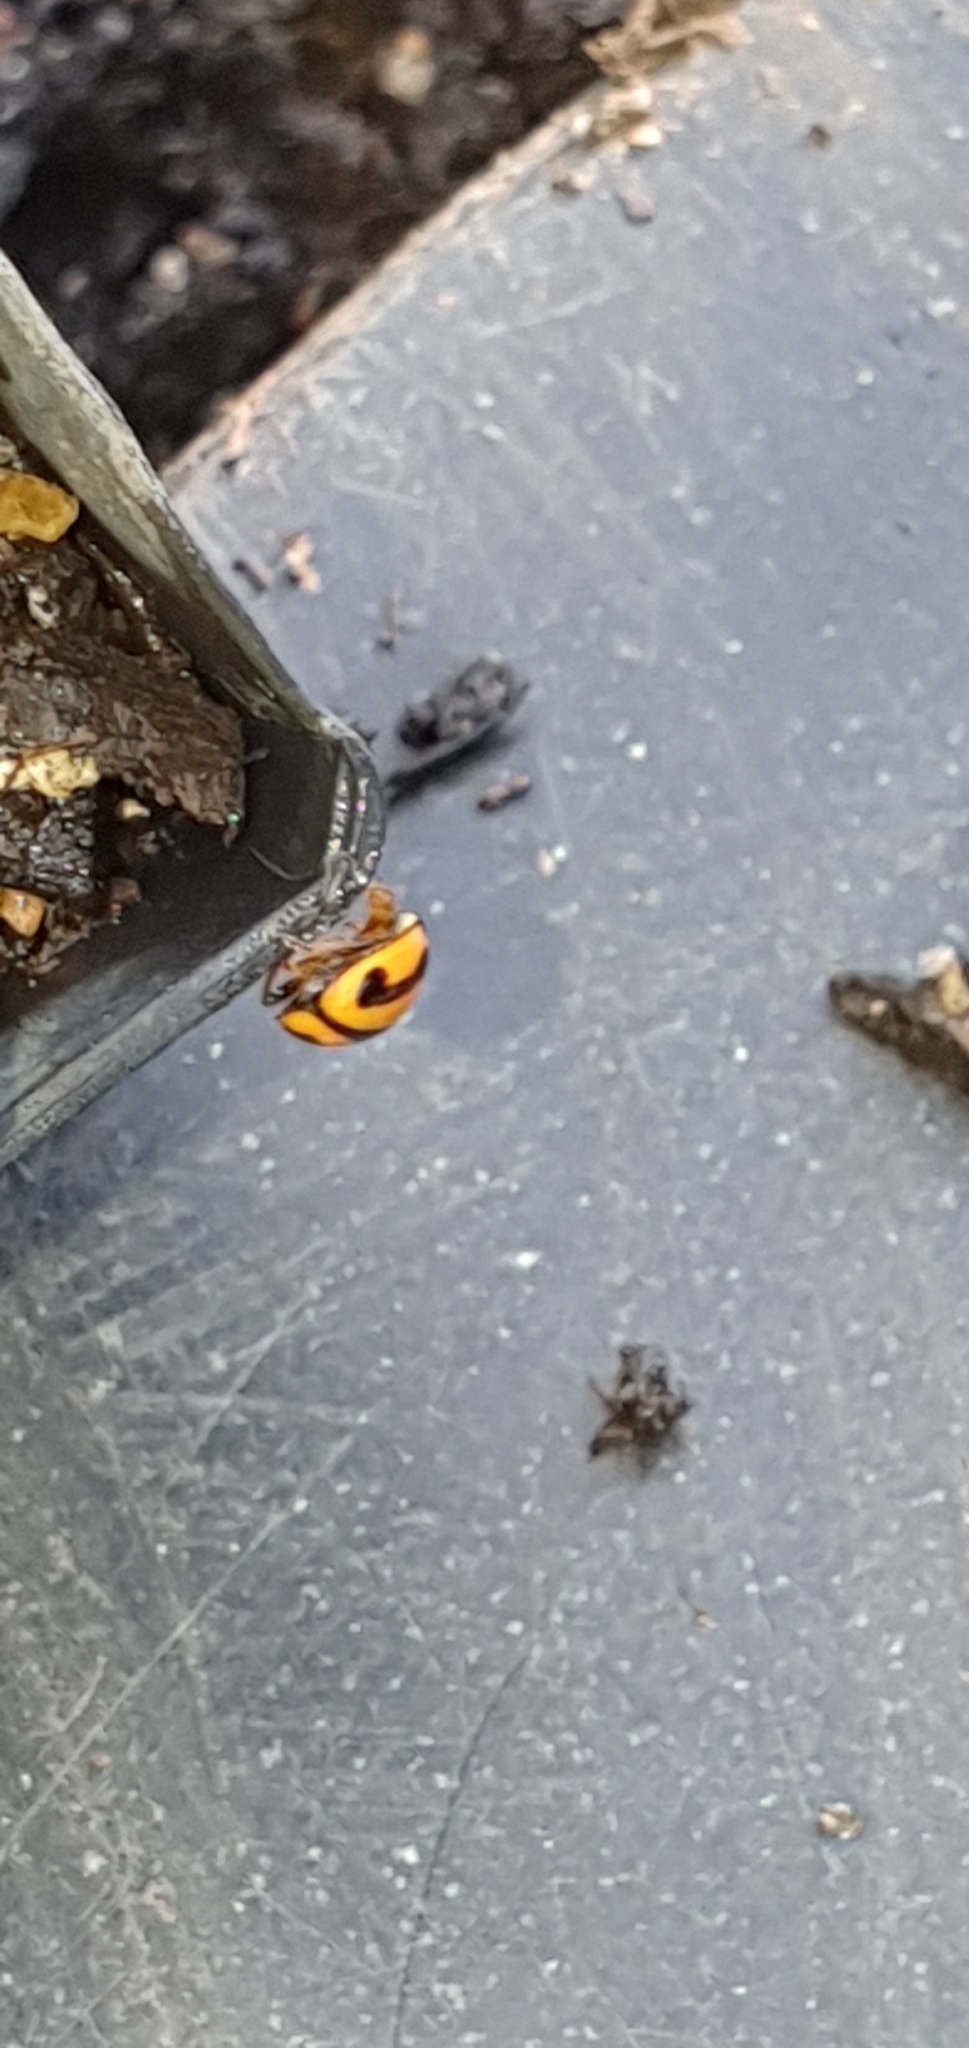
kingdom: Animalia
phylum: Arthropoda
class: Insecta
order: Coleoptera
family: Coccinellidae
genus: Micraspis
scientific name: Micraspis frenata
